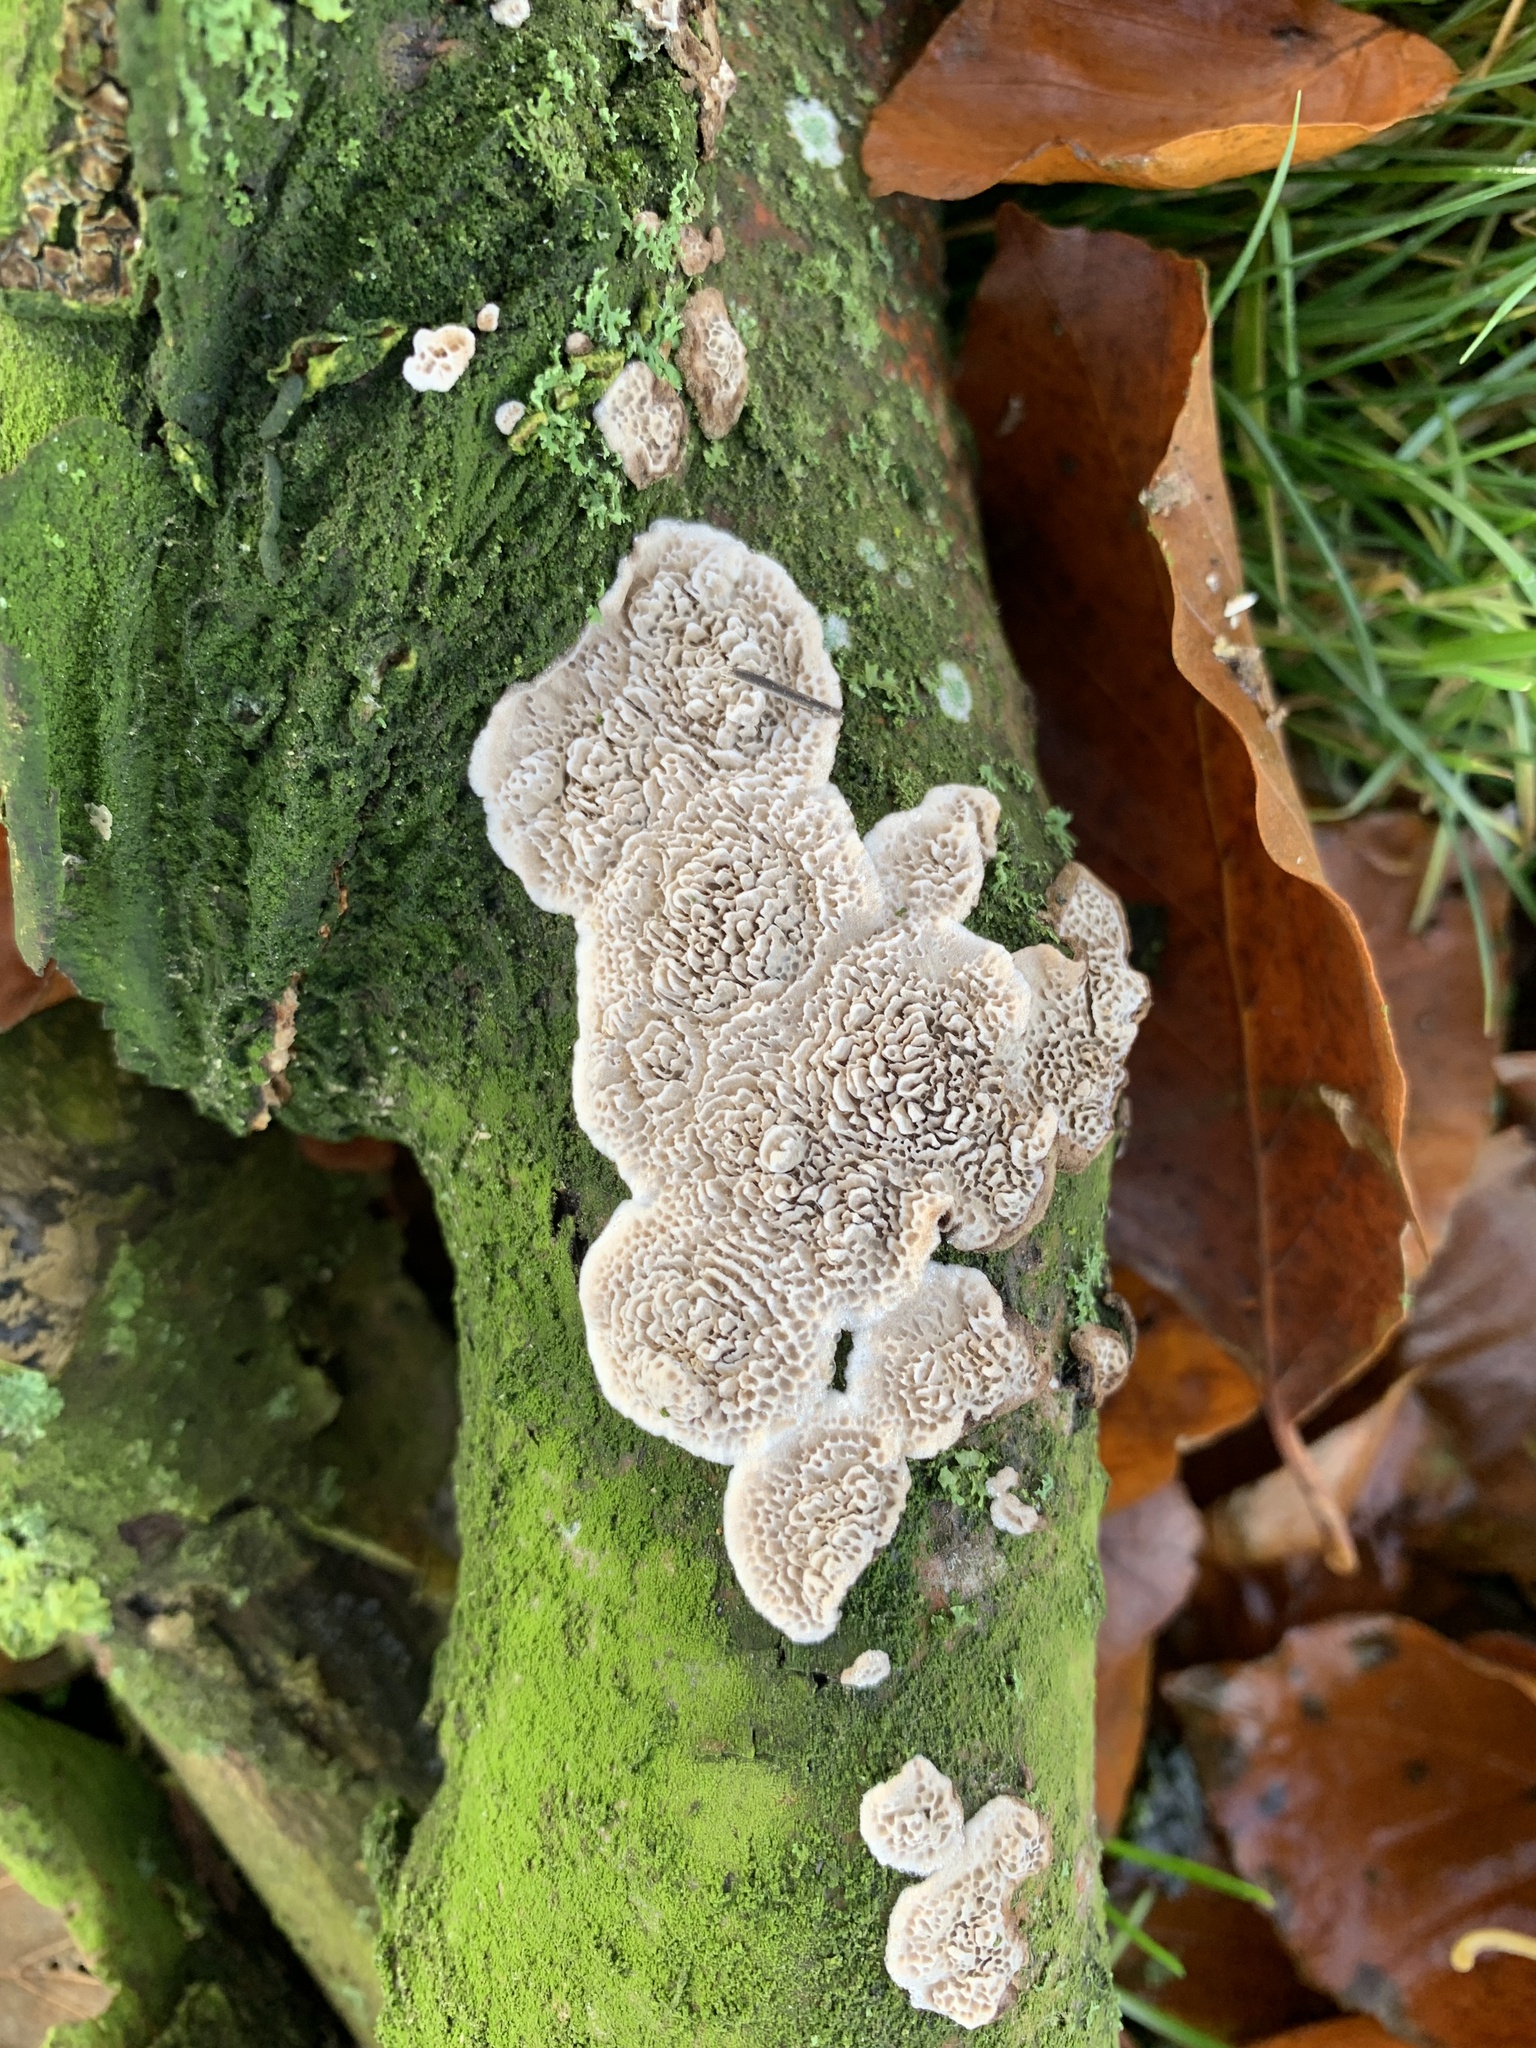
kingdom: Fungi
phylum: Basidiomycota
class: Agaricomycetes
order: Polyporales
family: Polyporaceae
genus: Podofomes
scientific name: Podofomes mollis
